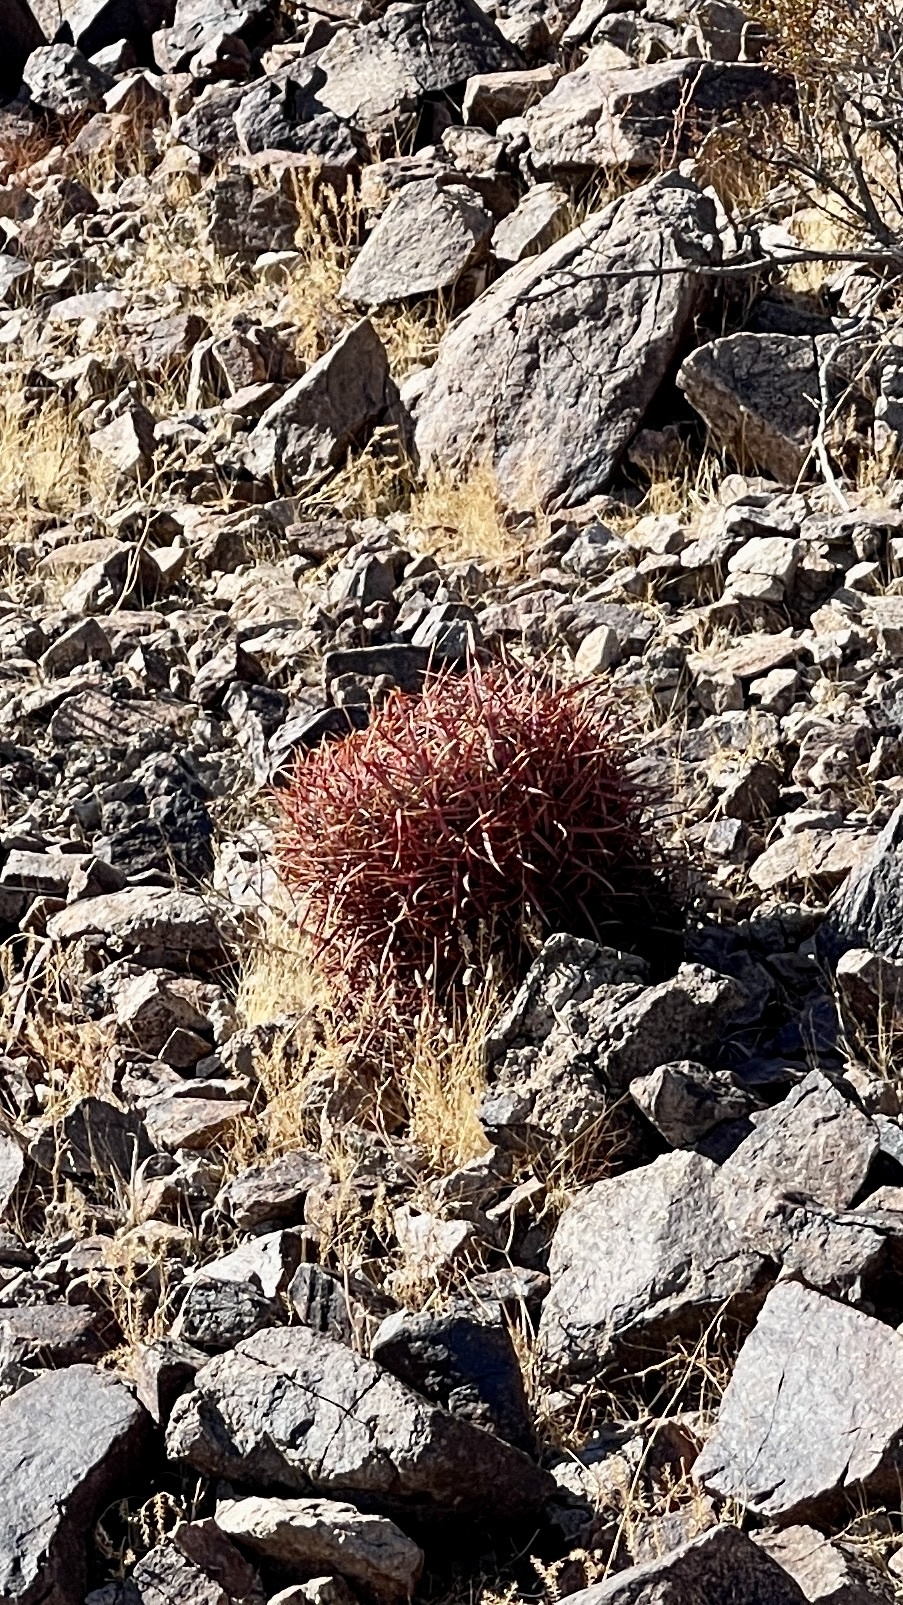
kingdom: Plantae
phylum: Tracheophyta
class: Magnoliopsida
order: Caryophyllales
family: Cactaceae
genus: Ferocactus
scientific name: Ferocactus cylindraceus
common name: California barrel cactus
